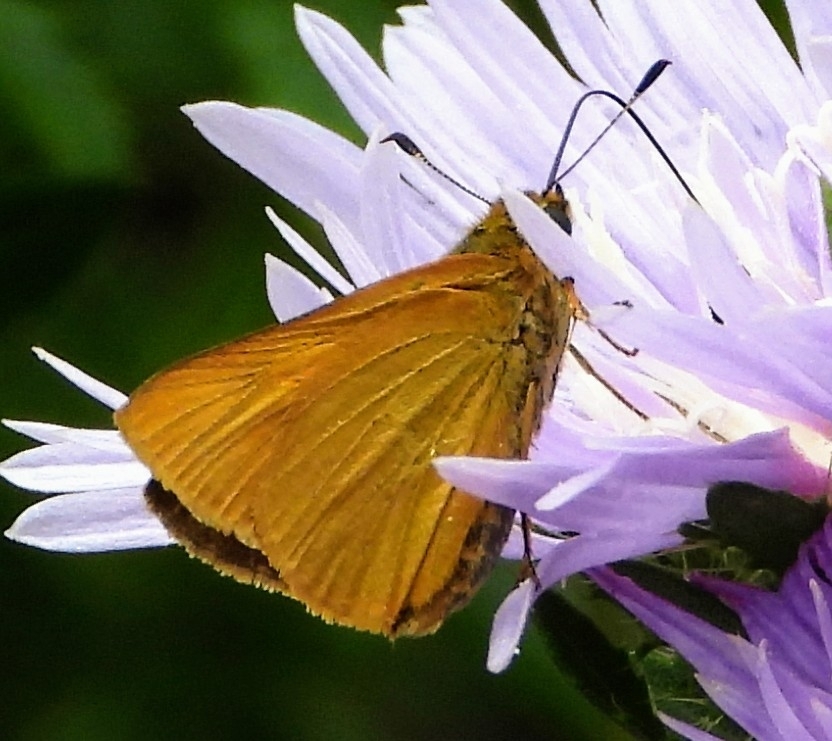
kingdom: Animalia
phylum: Arthropoda
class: Insecta
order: Lepidoptera
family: Hesperiidae
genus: Atrytone
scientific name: Atrytone delaware
